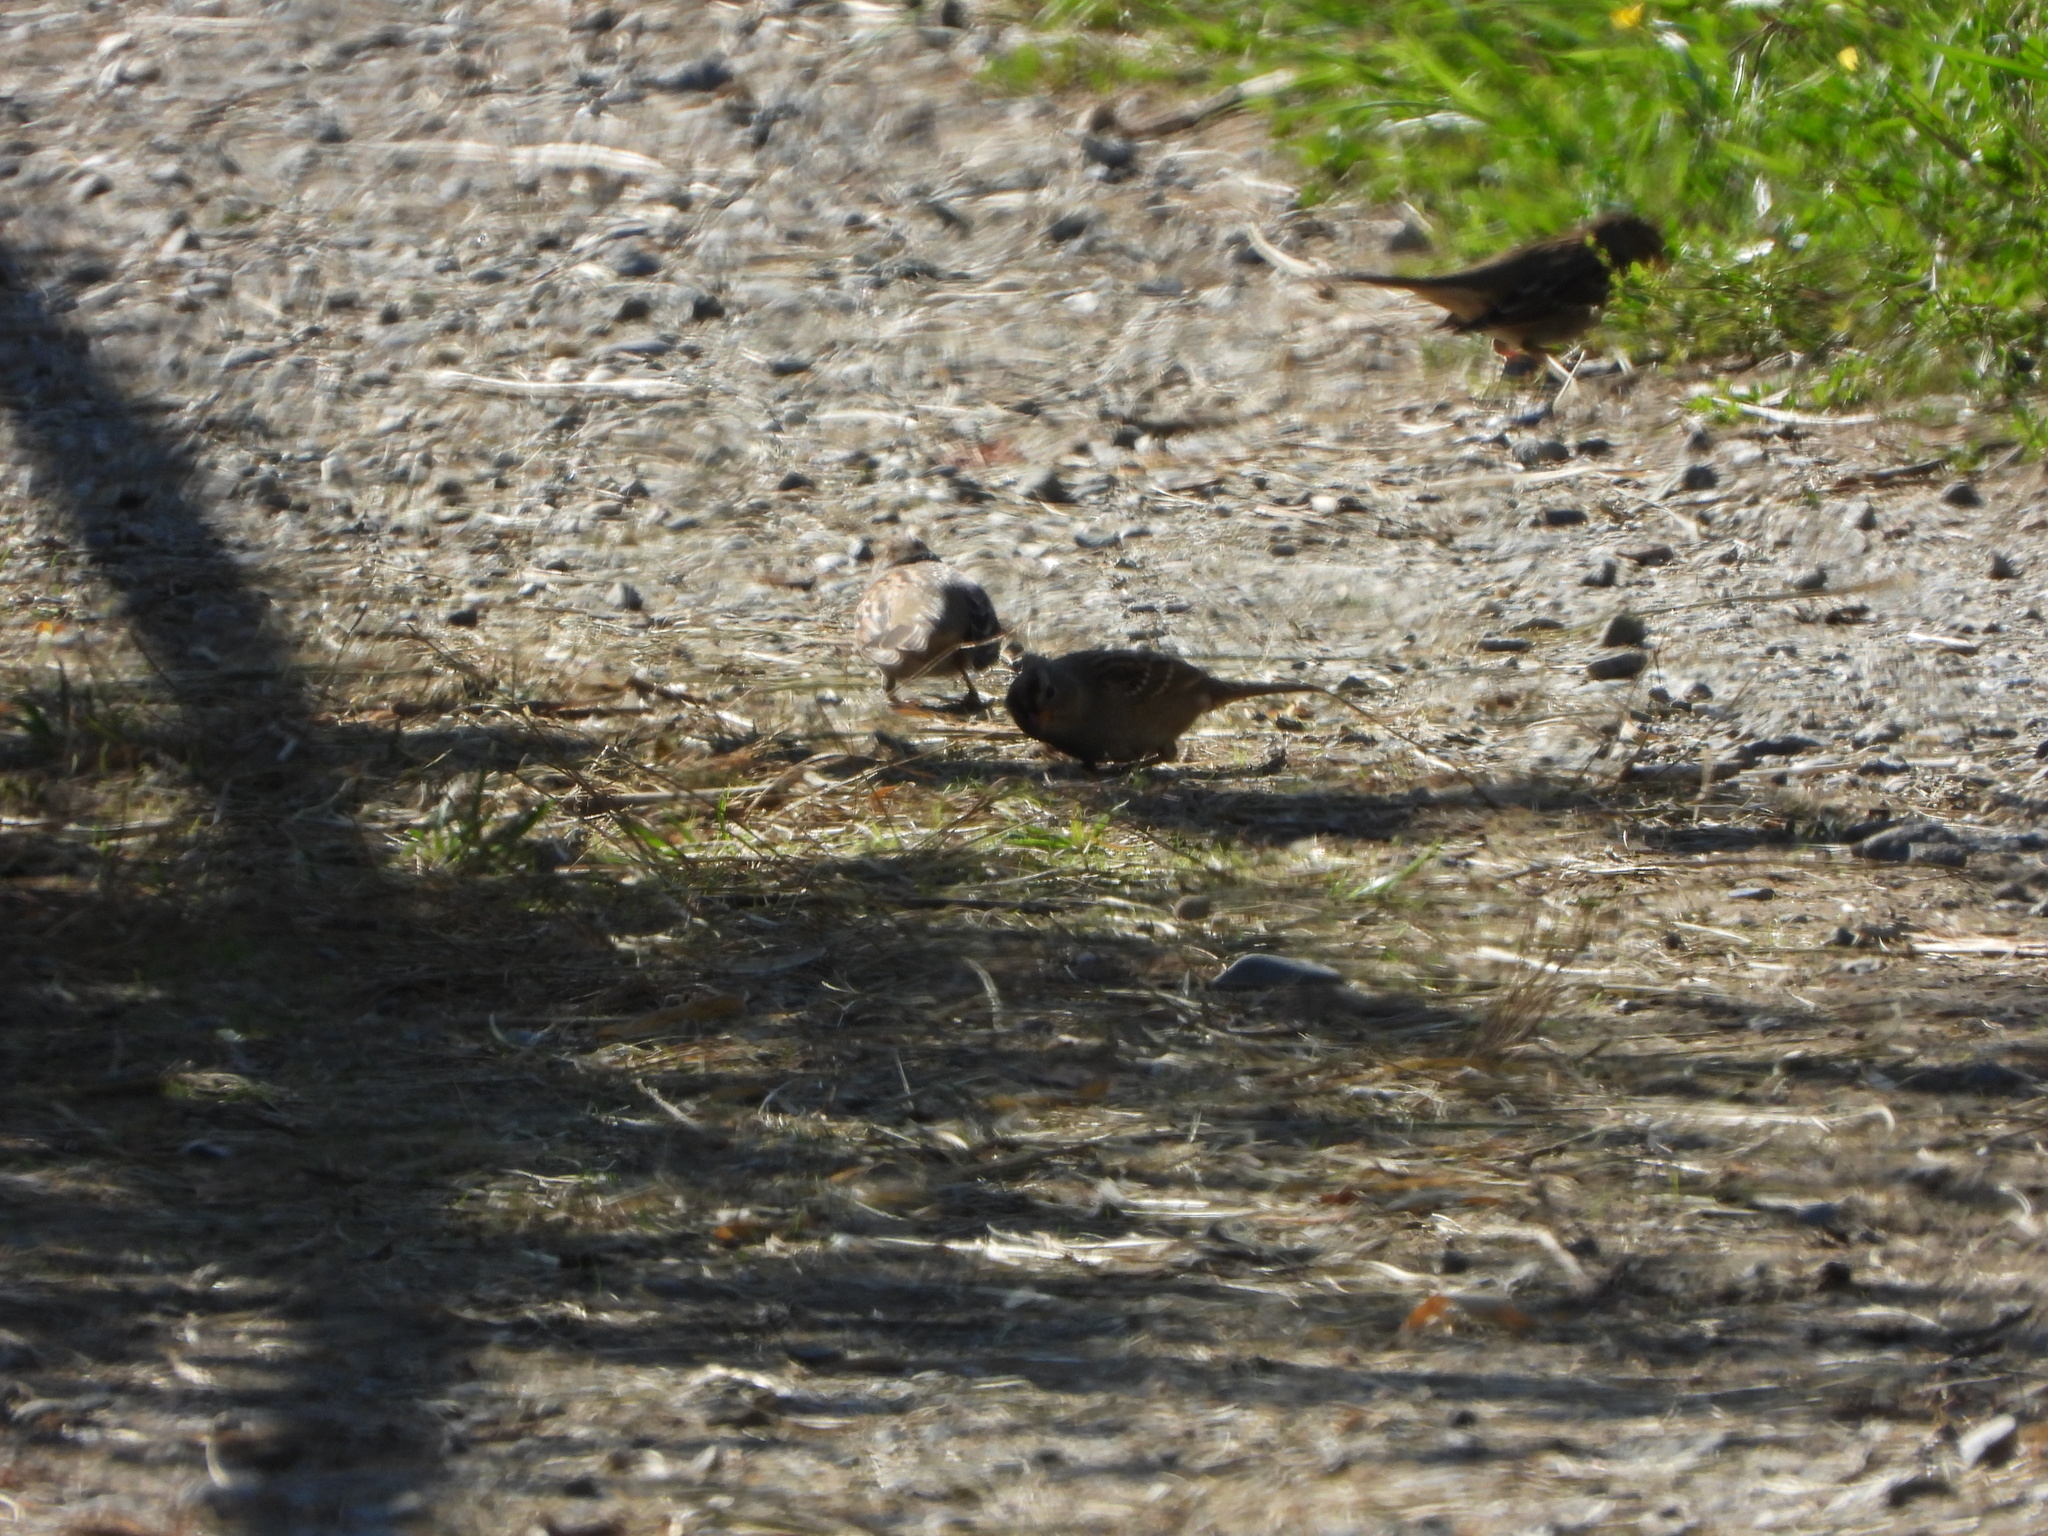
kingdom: Animalia
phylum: Chordata
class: Aves
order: Passeriformes
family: Passerellidae
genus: Zonotrichia
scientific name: Zonotrichia leucophrys
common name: White-crowned sparrow
